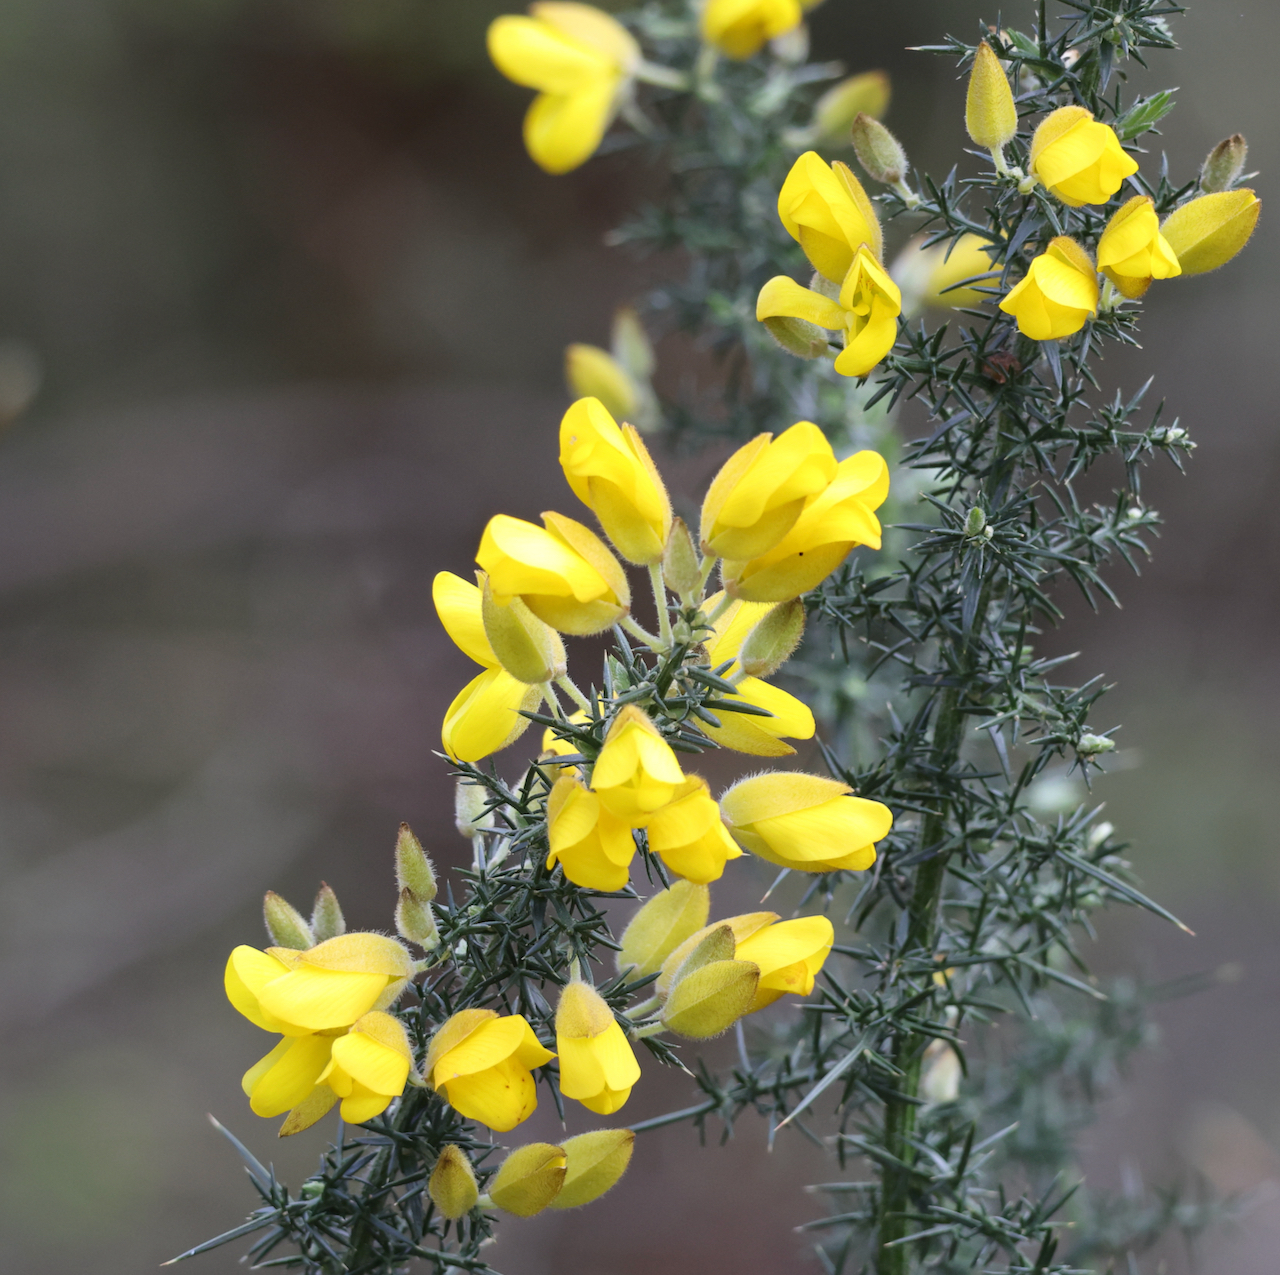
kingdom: Plantae
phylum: Tracheophyta
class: Magnoliopsida
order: Fabales
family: Fabaceae
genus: Ulex
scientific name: Ulex europaeus
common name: Common gorse
